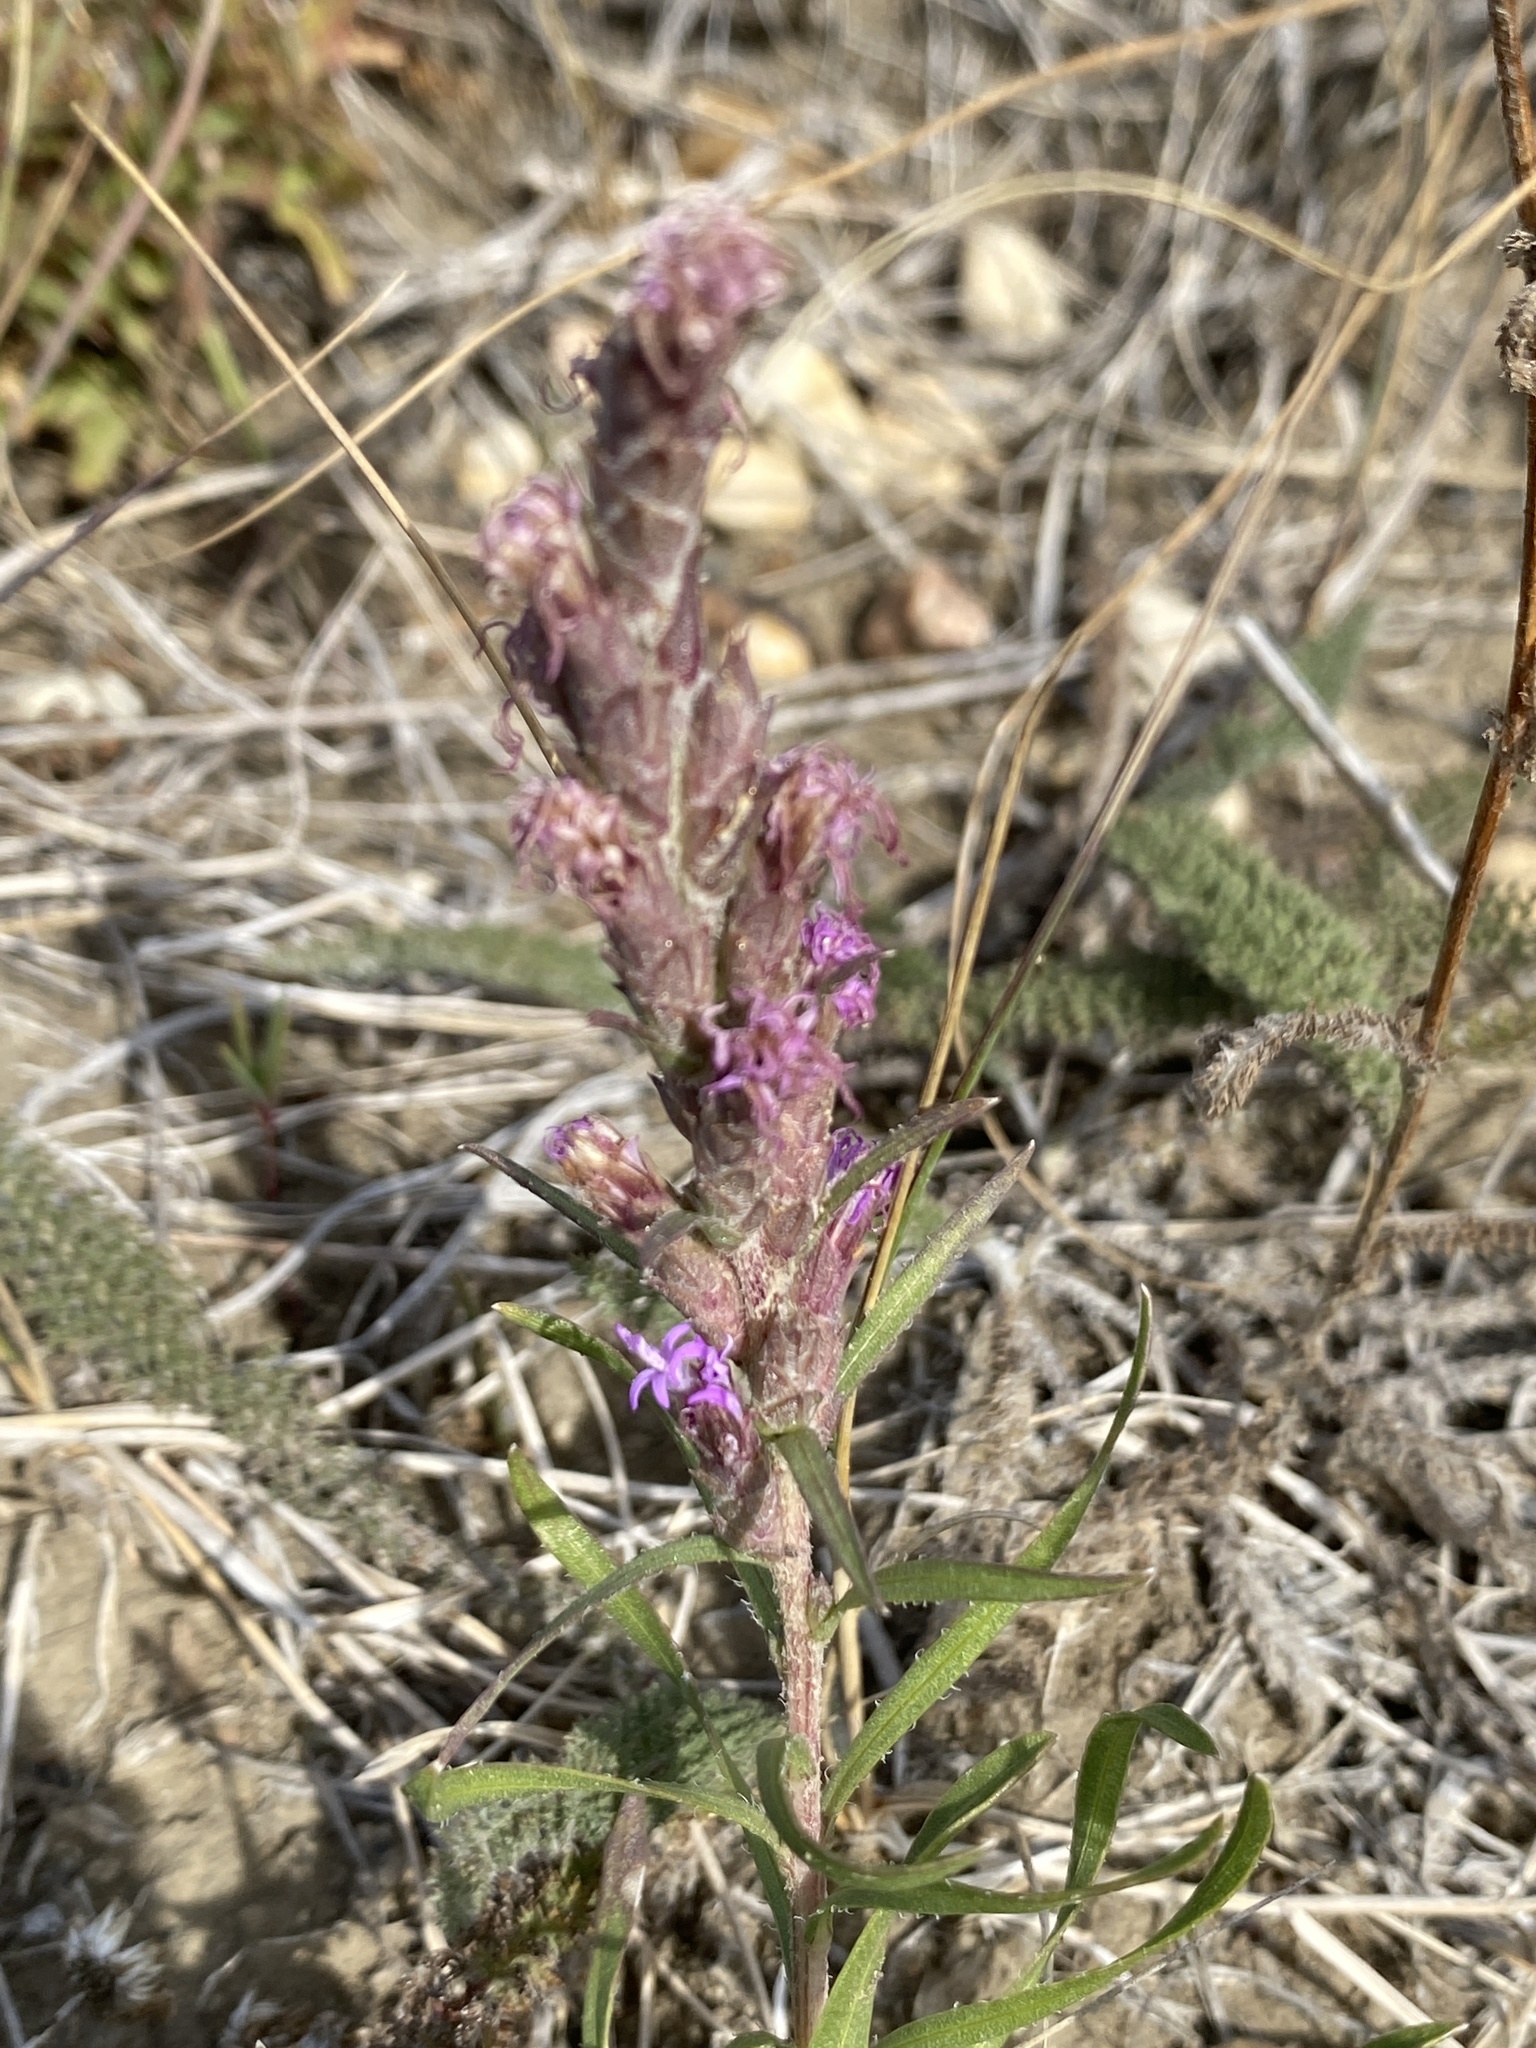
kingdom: Plantae
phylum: Tracheophyta
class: Magnoliopsida
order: Asterales
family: Asteraceae
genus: Liatris
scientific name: Liatris punctata
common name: Dotted gayfeather
